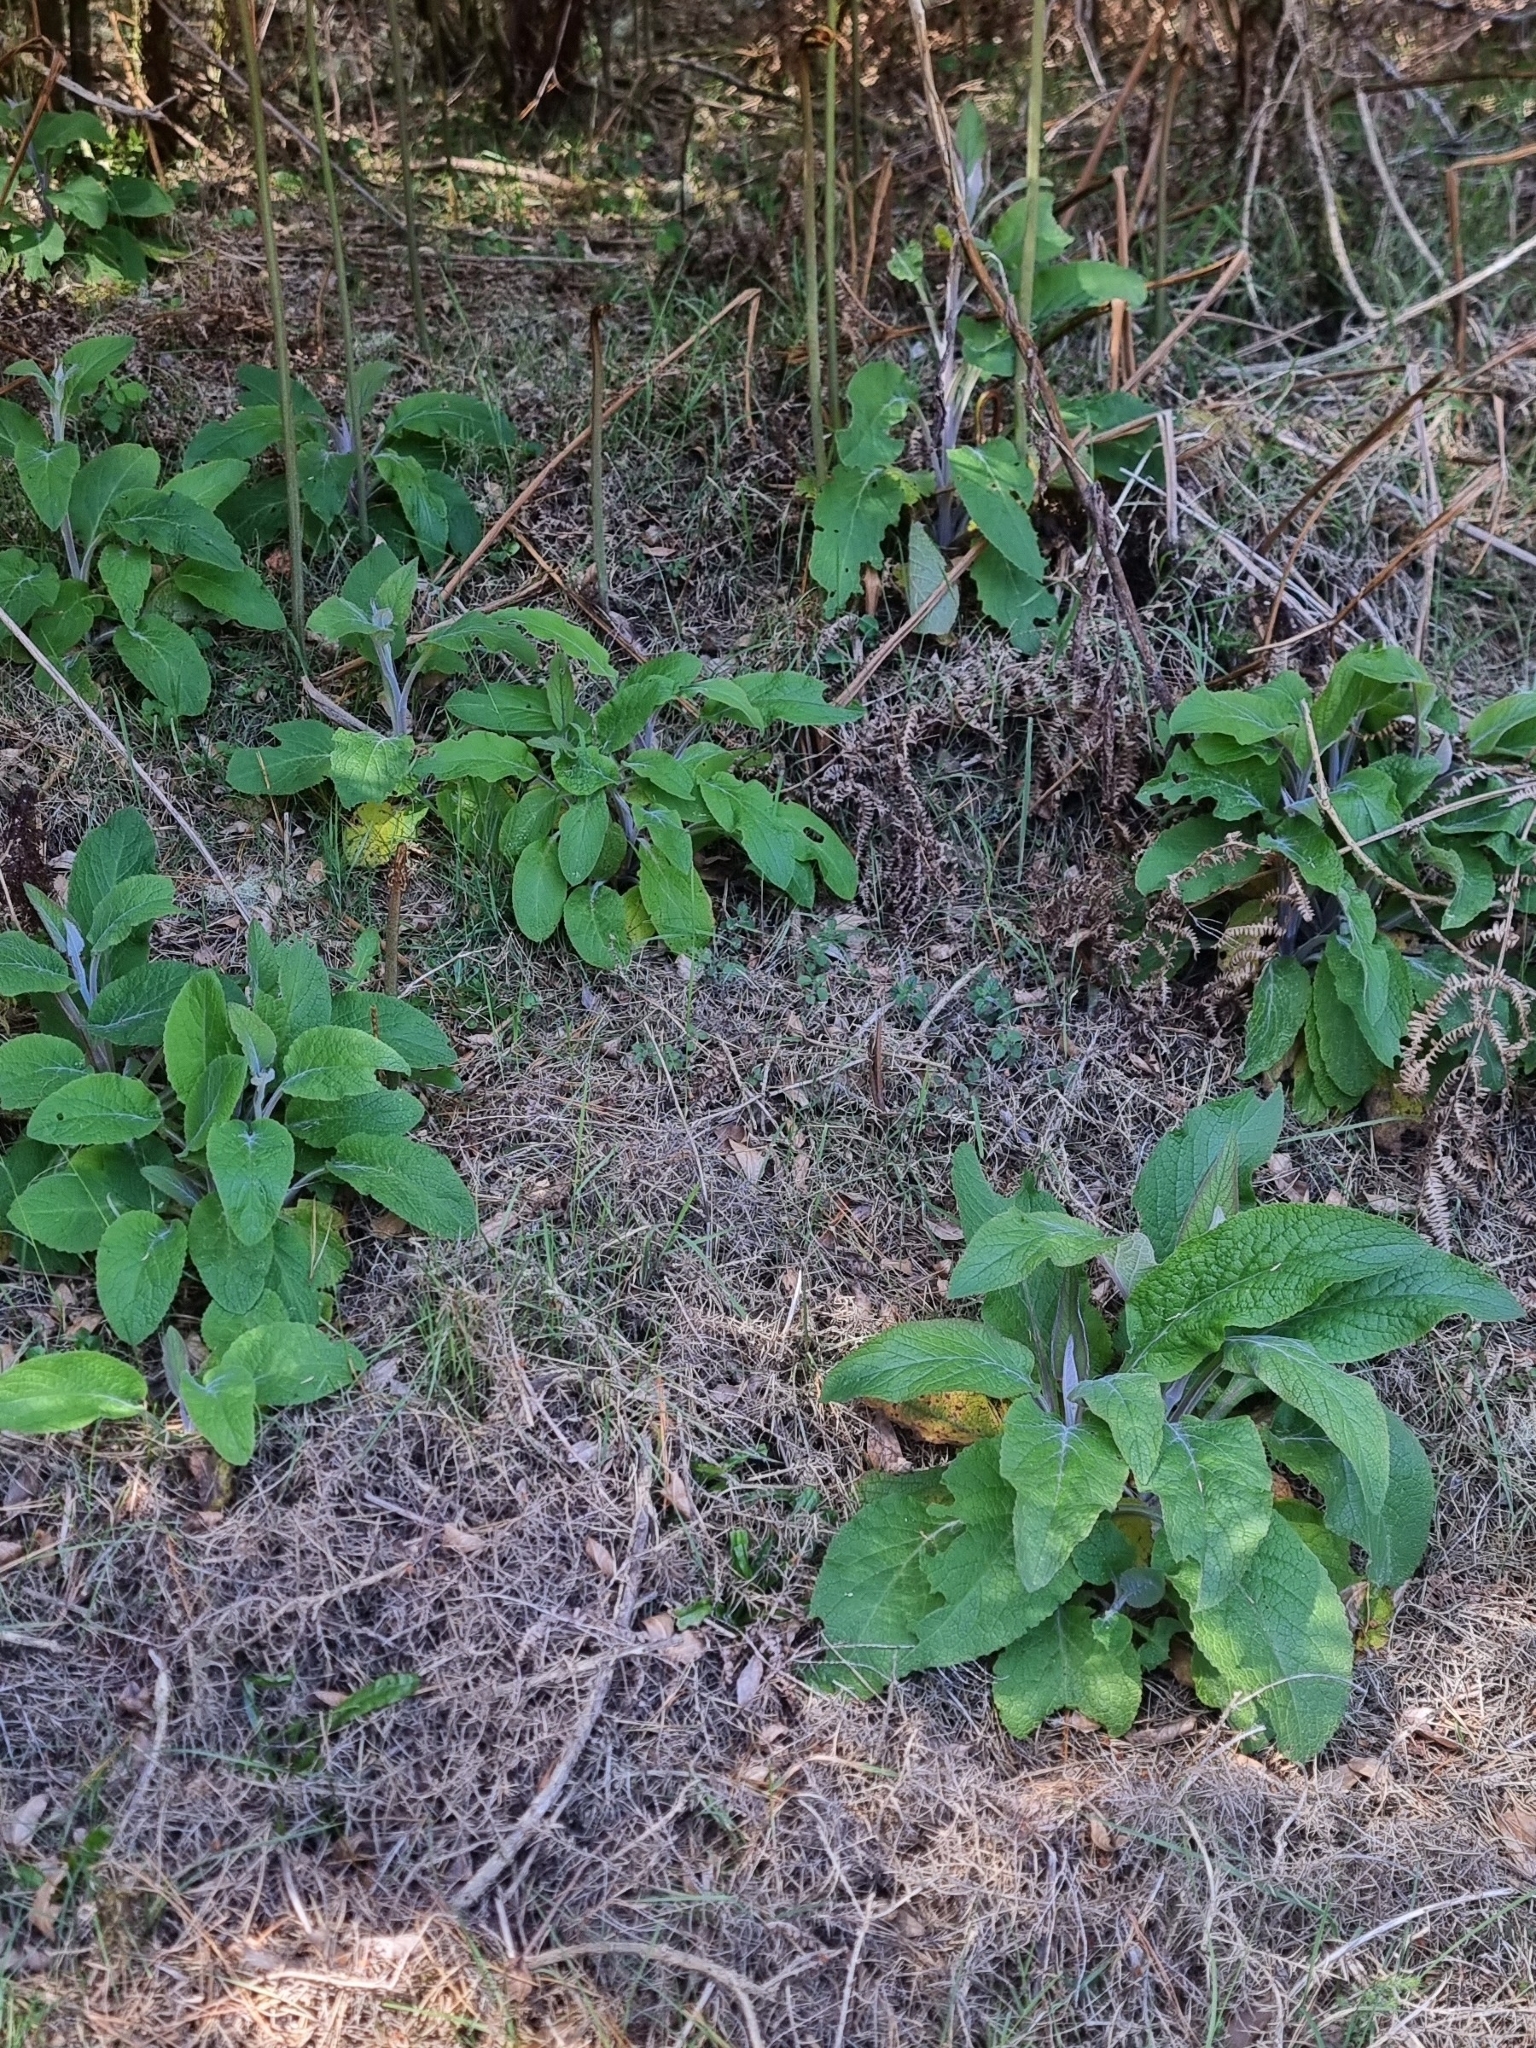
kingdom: Plantae
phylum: Tracheophyta
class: Magnoliopsida
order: Lamiales
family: Plantaginaceae
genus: Digitalis
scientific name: Digitalis purpurea
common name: Foxglove
